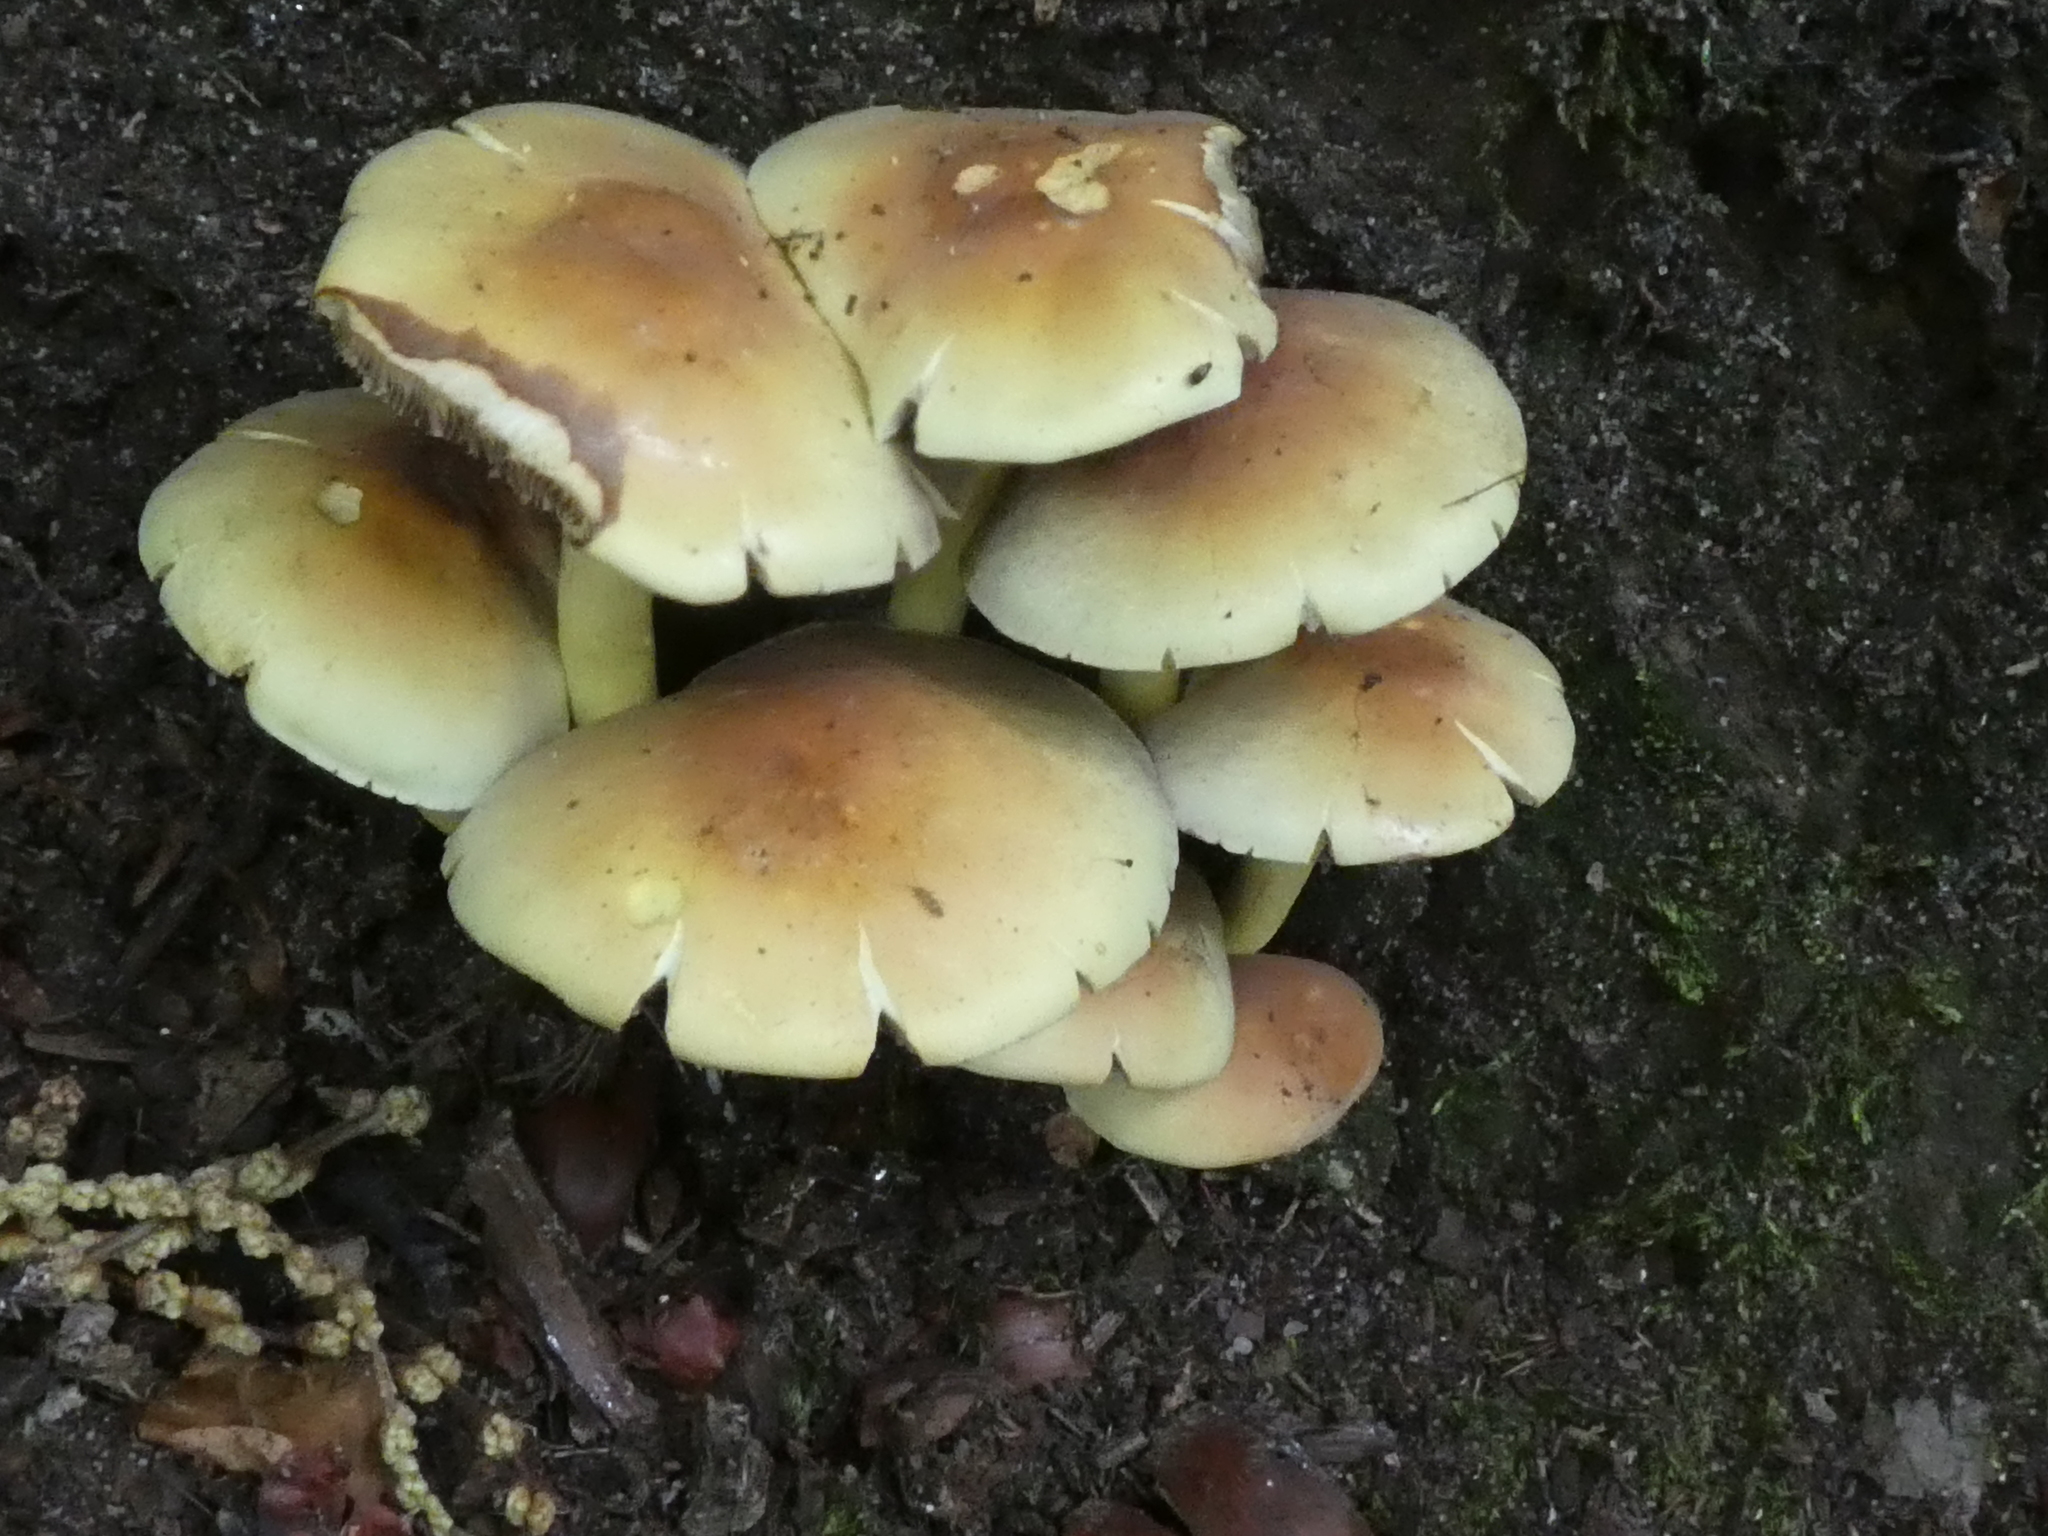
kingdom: Fungi
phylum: Basidiomycota
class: Agaricomycetes
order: Agaricales
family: Strophariaceae
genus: Hypholoma
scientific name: Hypholoma fasciculare
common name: Sulphur tuft
